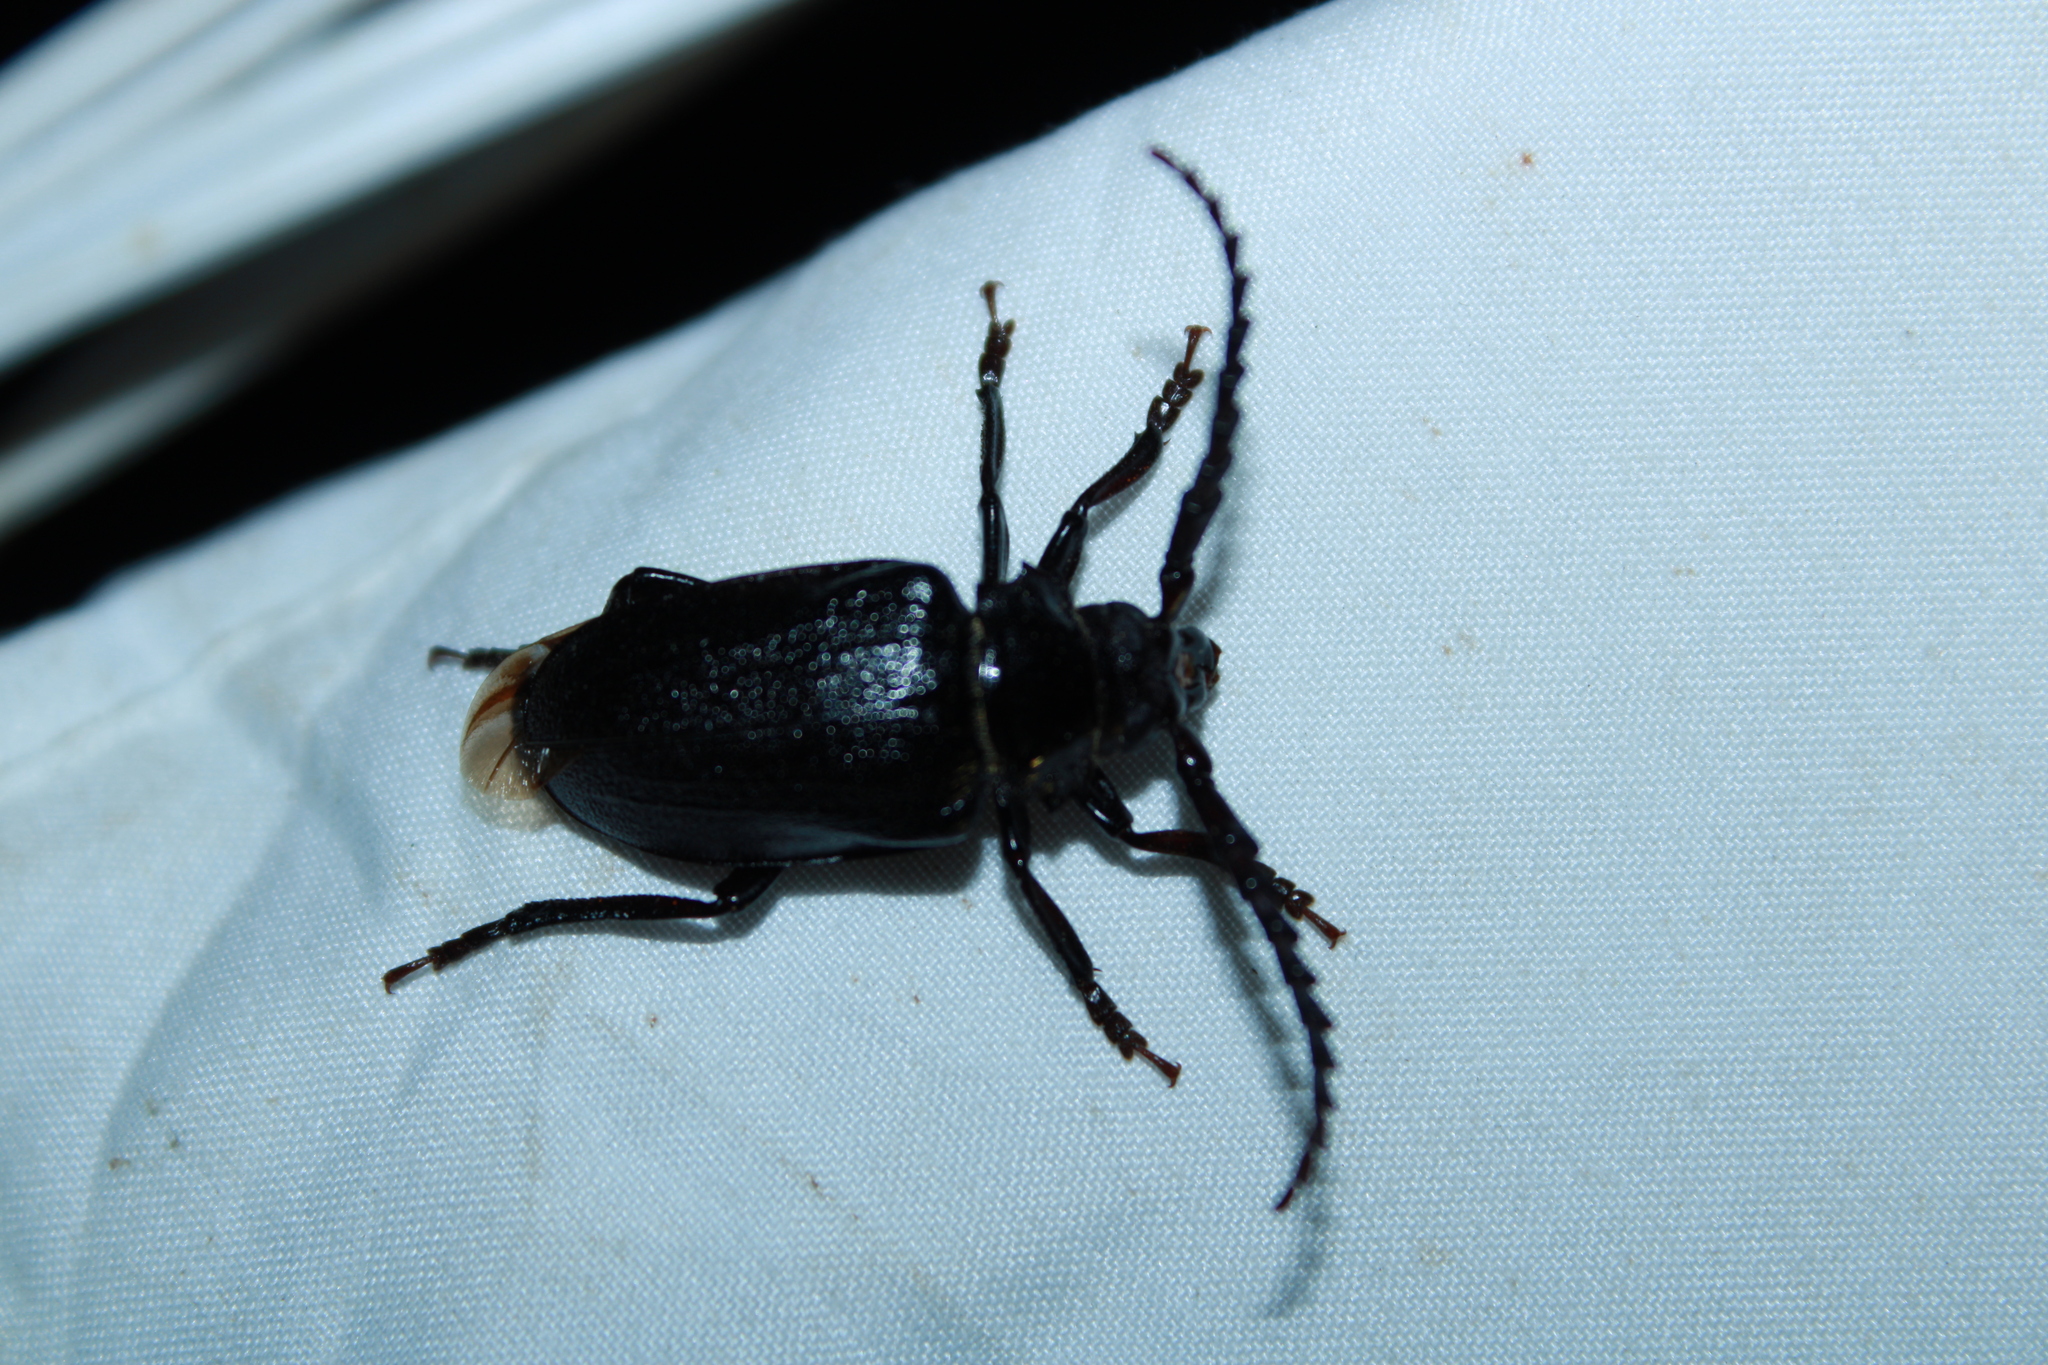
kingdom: Animalia
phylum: Arthropoda
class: Insecta
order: Coleoptera
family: Cerambycidae
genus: Prionus
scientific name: Prionus laticollis
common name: Broad necked prionus
